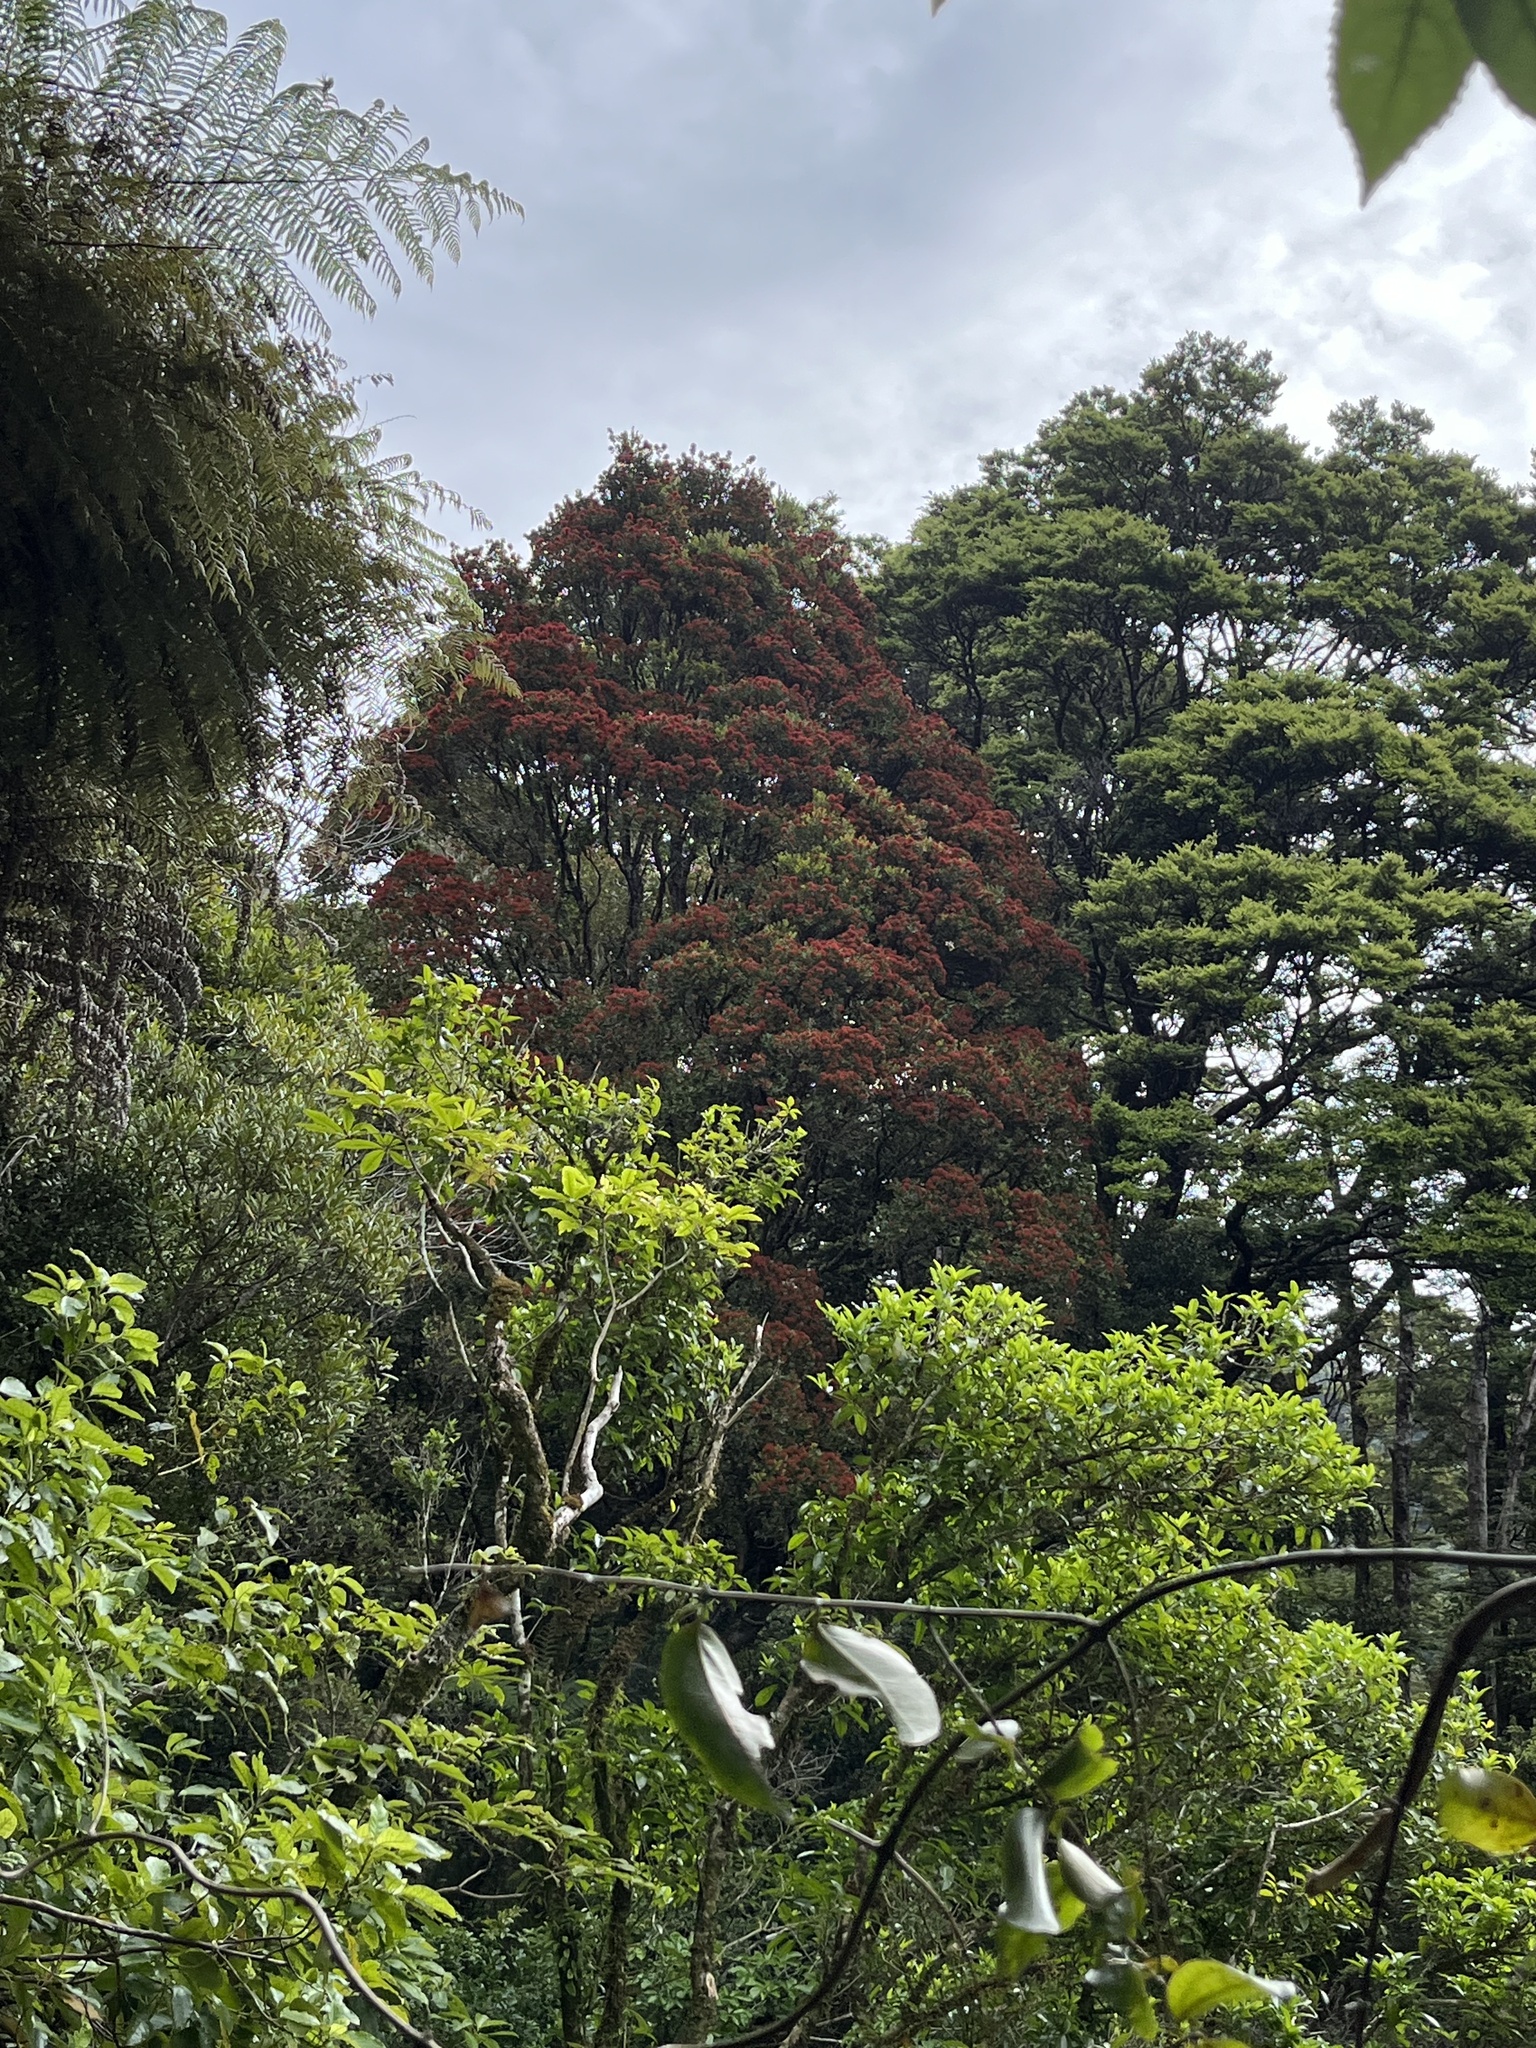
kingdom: Plantae
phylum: Tracheophyta
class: Magnoliopsida
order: Myrtales
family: Myrtaceae
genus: Metrosideros
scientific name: Metrosideros robusta
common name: Northern rata
